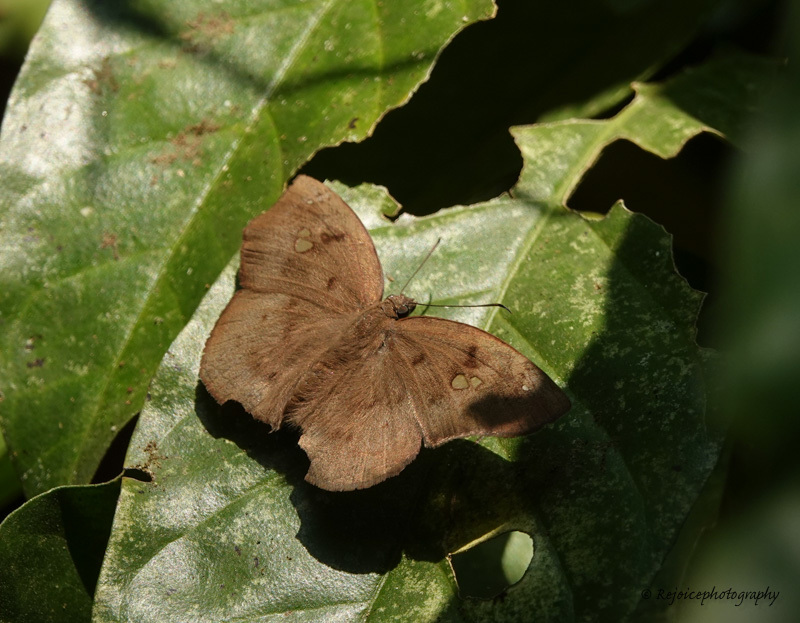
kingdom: Animalia
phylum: Arthropoda
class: Insecta
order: Lepidoptera
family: Hesperiidae
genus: Tagiades
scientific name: Tagiades japetus
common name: Pied flat
